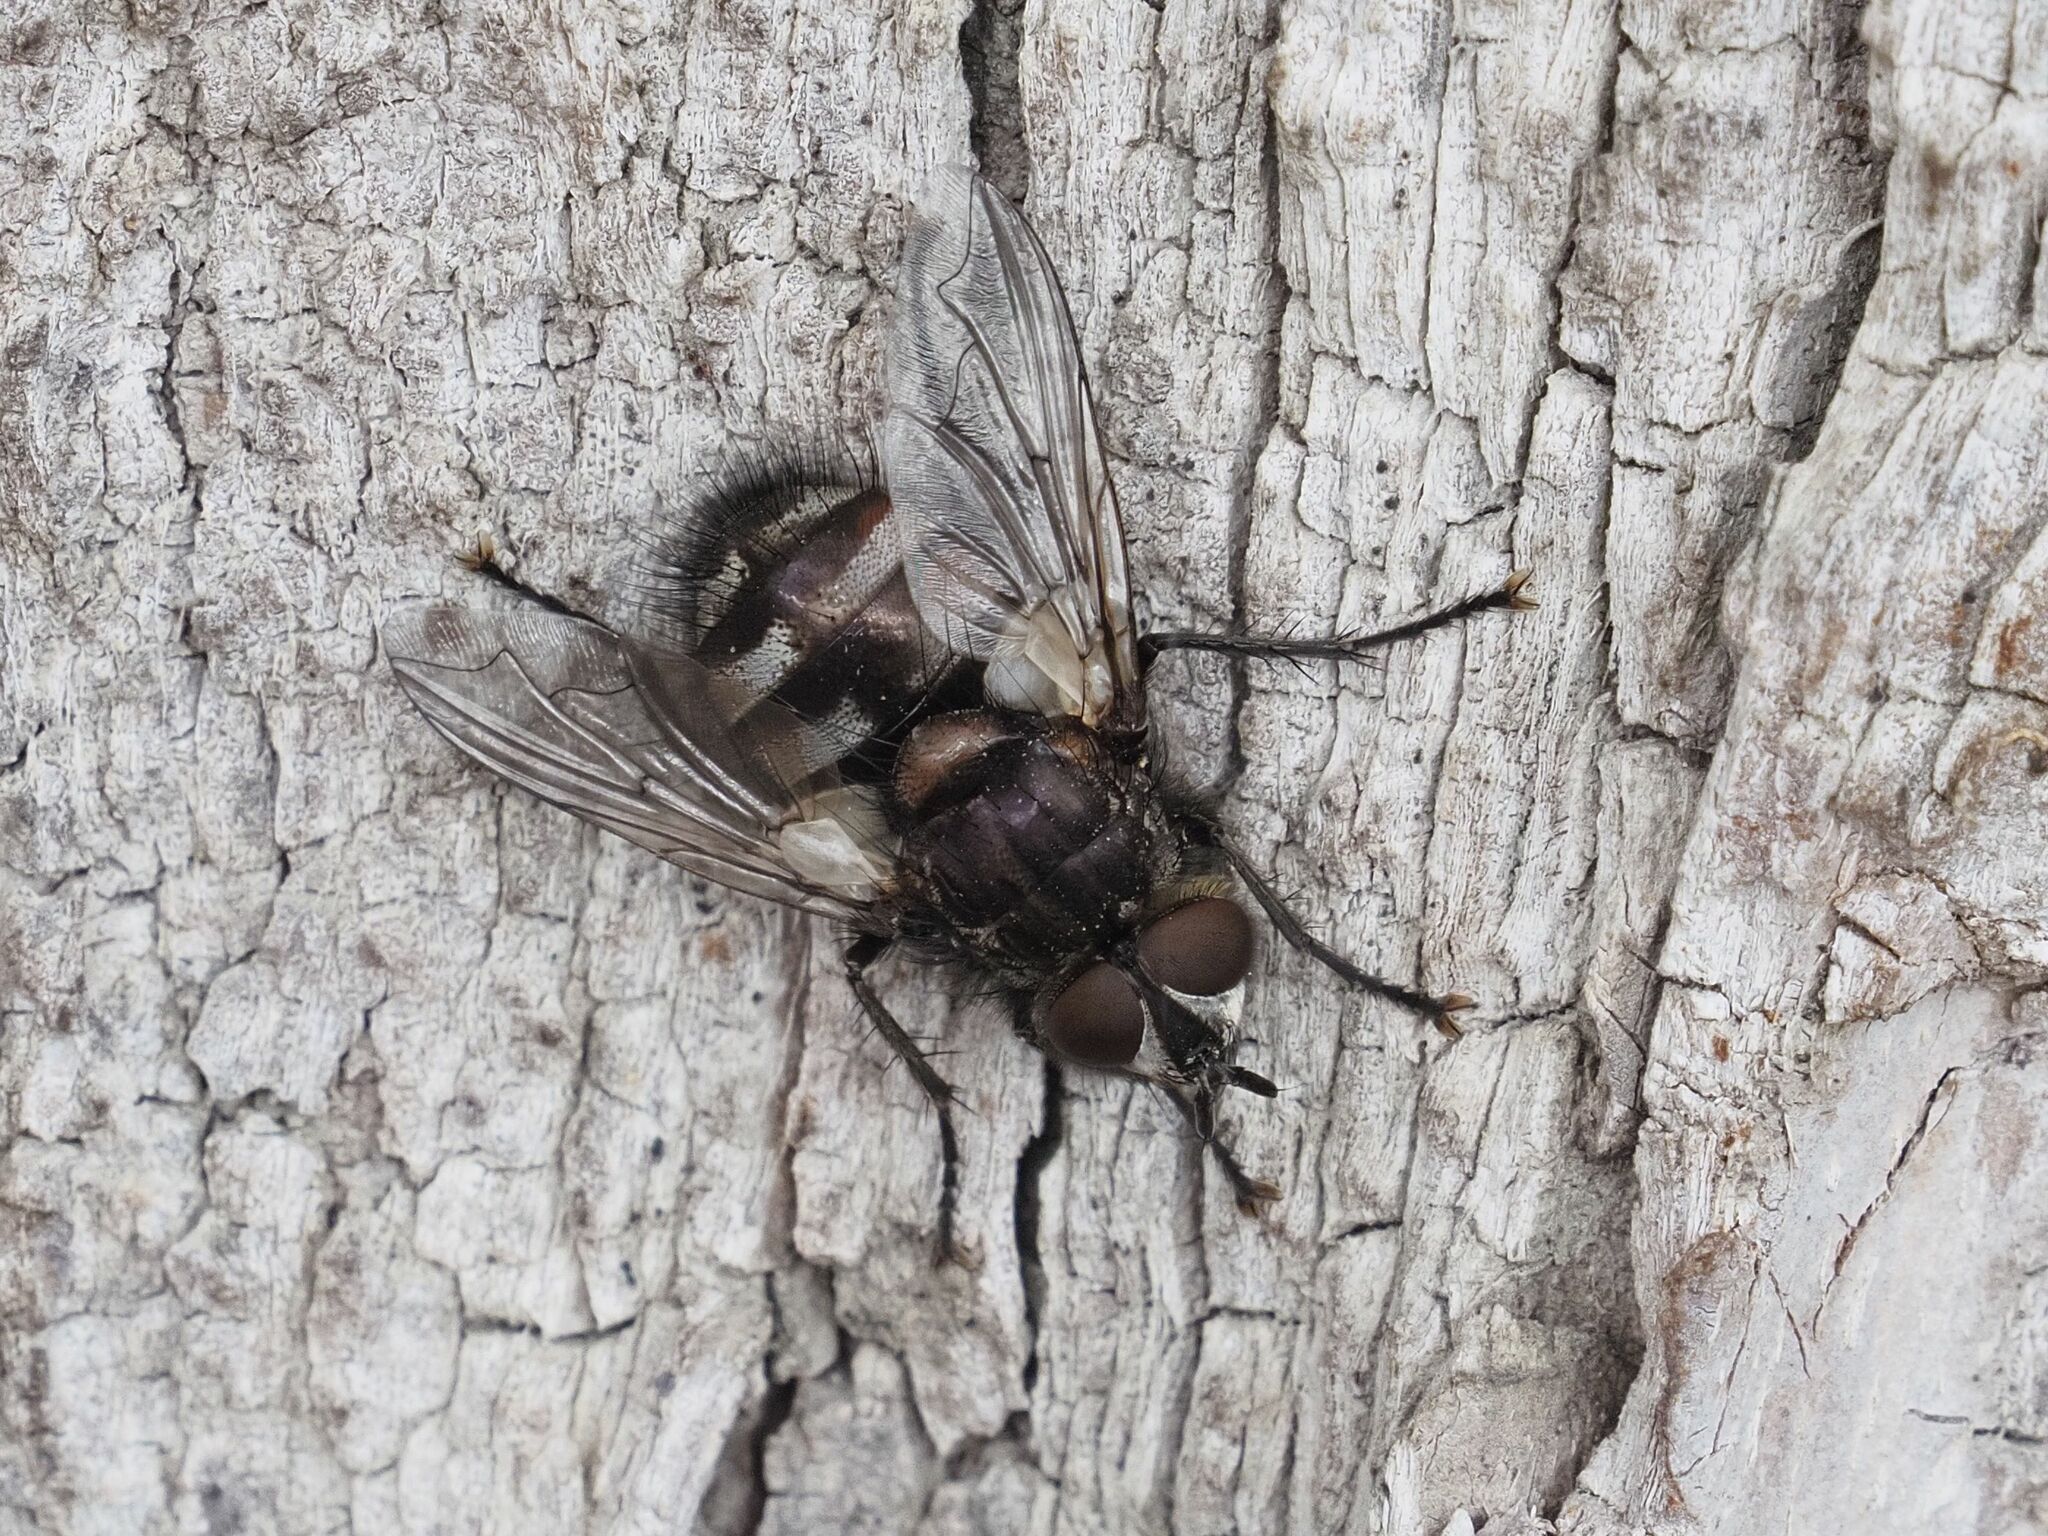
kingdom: Animalia
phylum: Arthropoda
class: Insecta
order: Diptera
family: Tachinidae
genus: Panzeria
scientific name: Panzeria puparum
